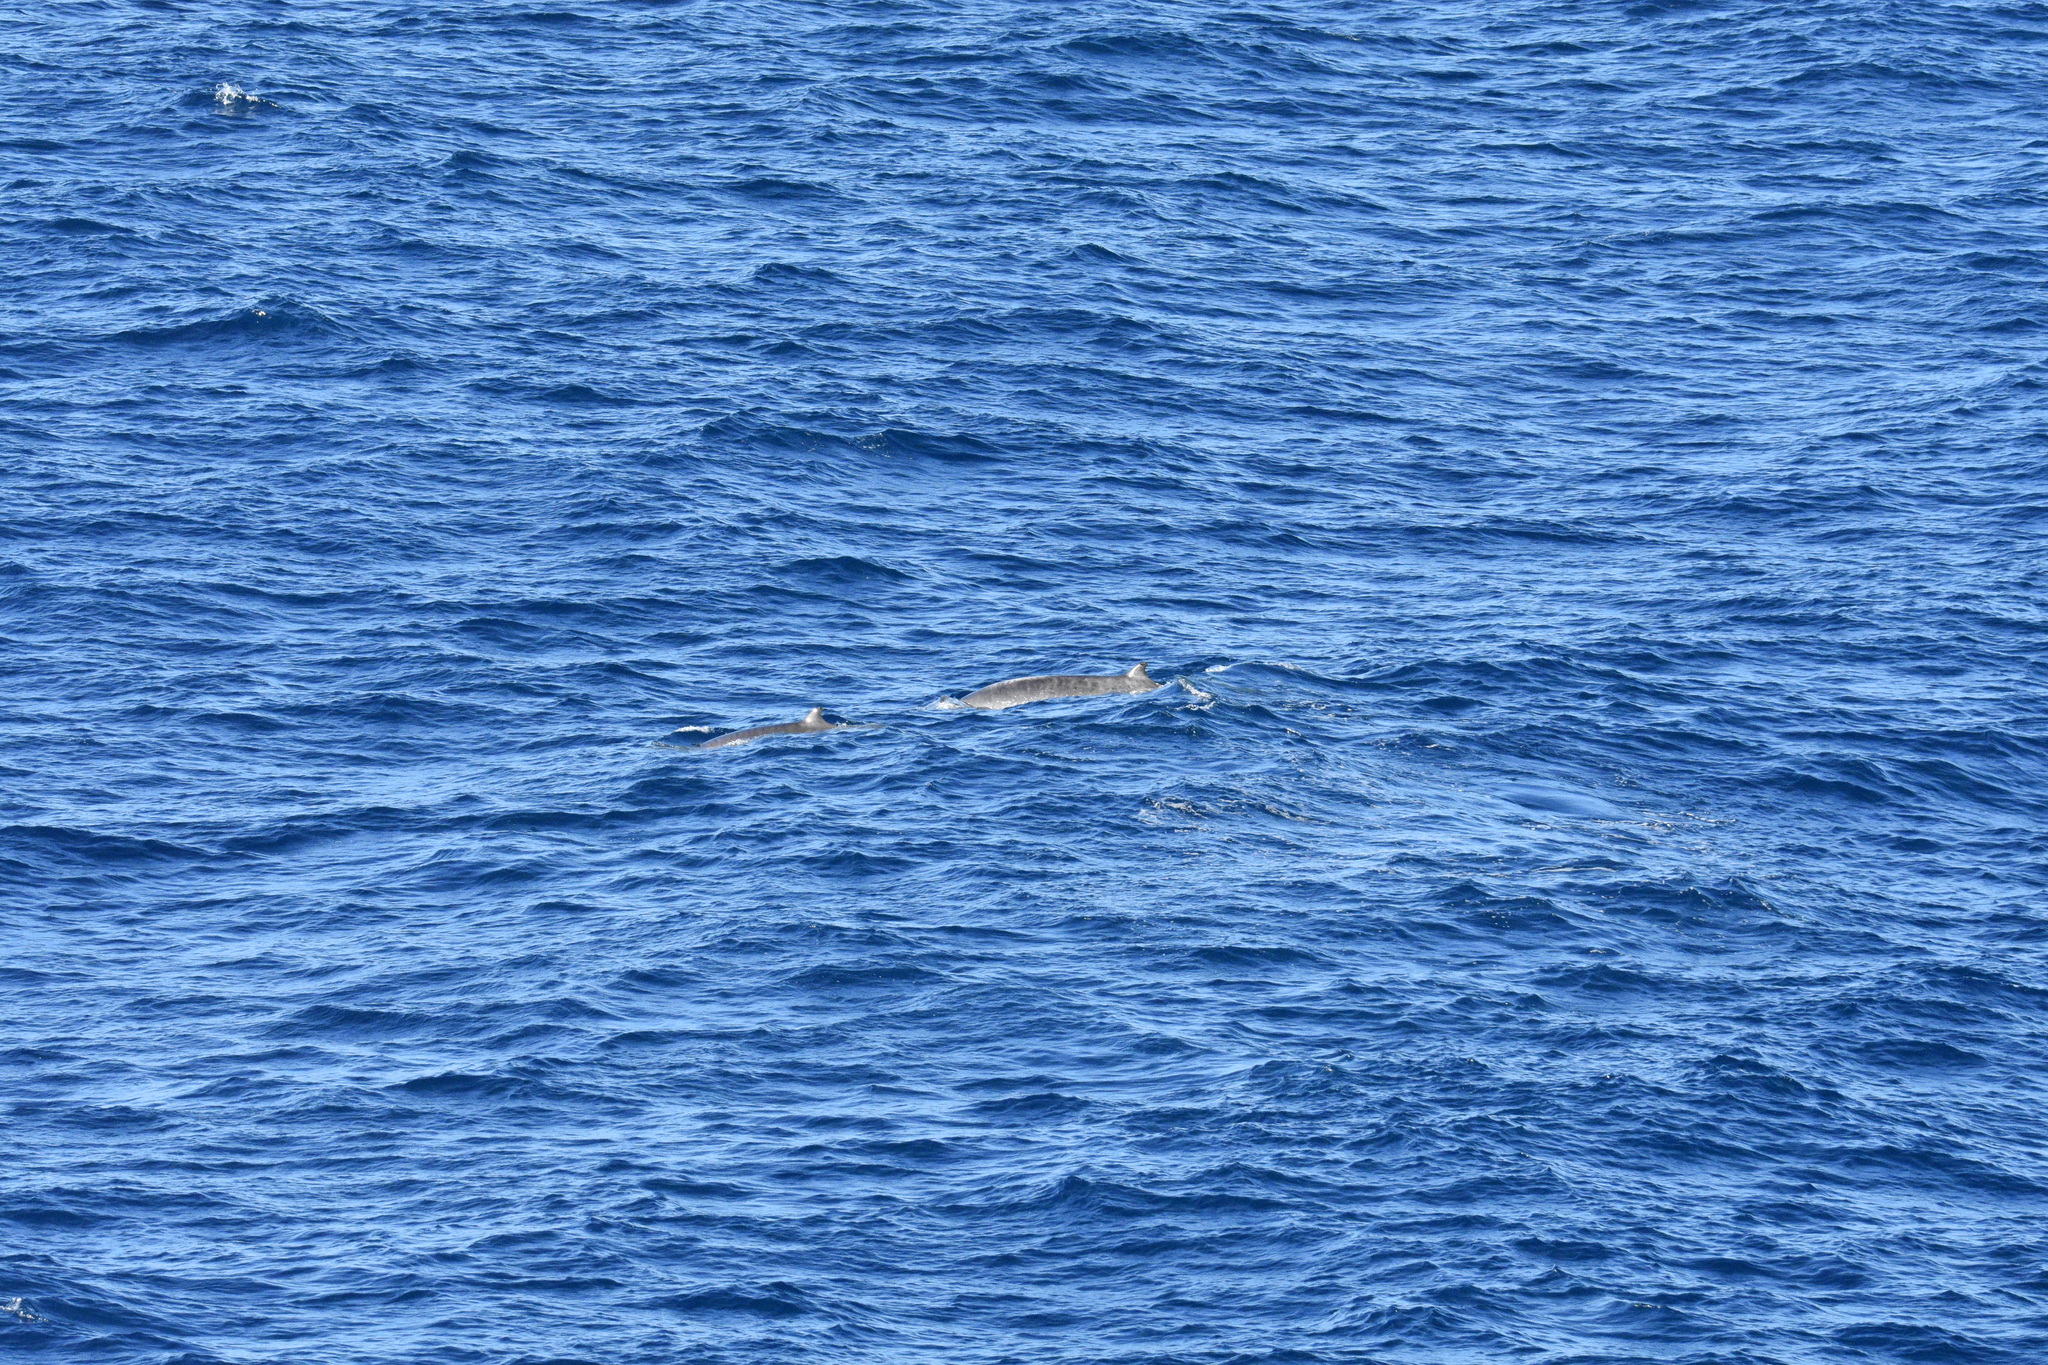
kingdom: Animalia
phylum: Chordata
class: Mammalia
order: Cetacea
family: Hyperoodontidae
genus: Mesoplodon
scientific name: Mesoplodon europaeus
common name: Gervais' beaked whale
